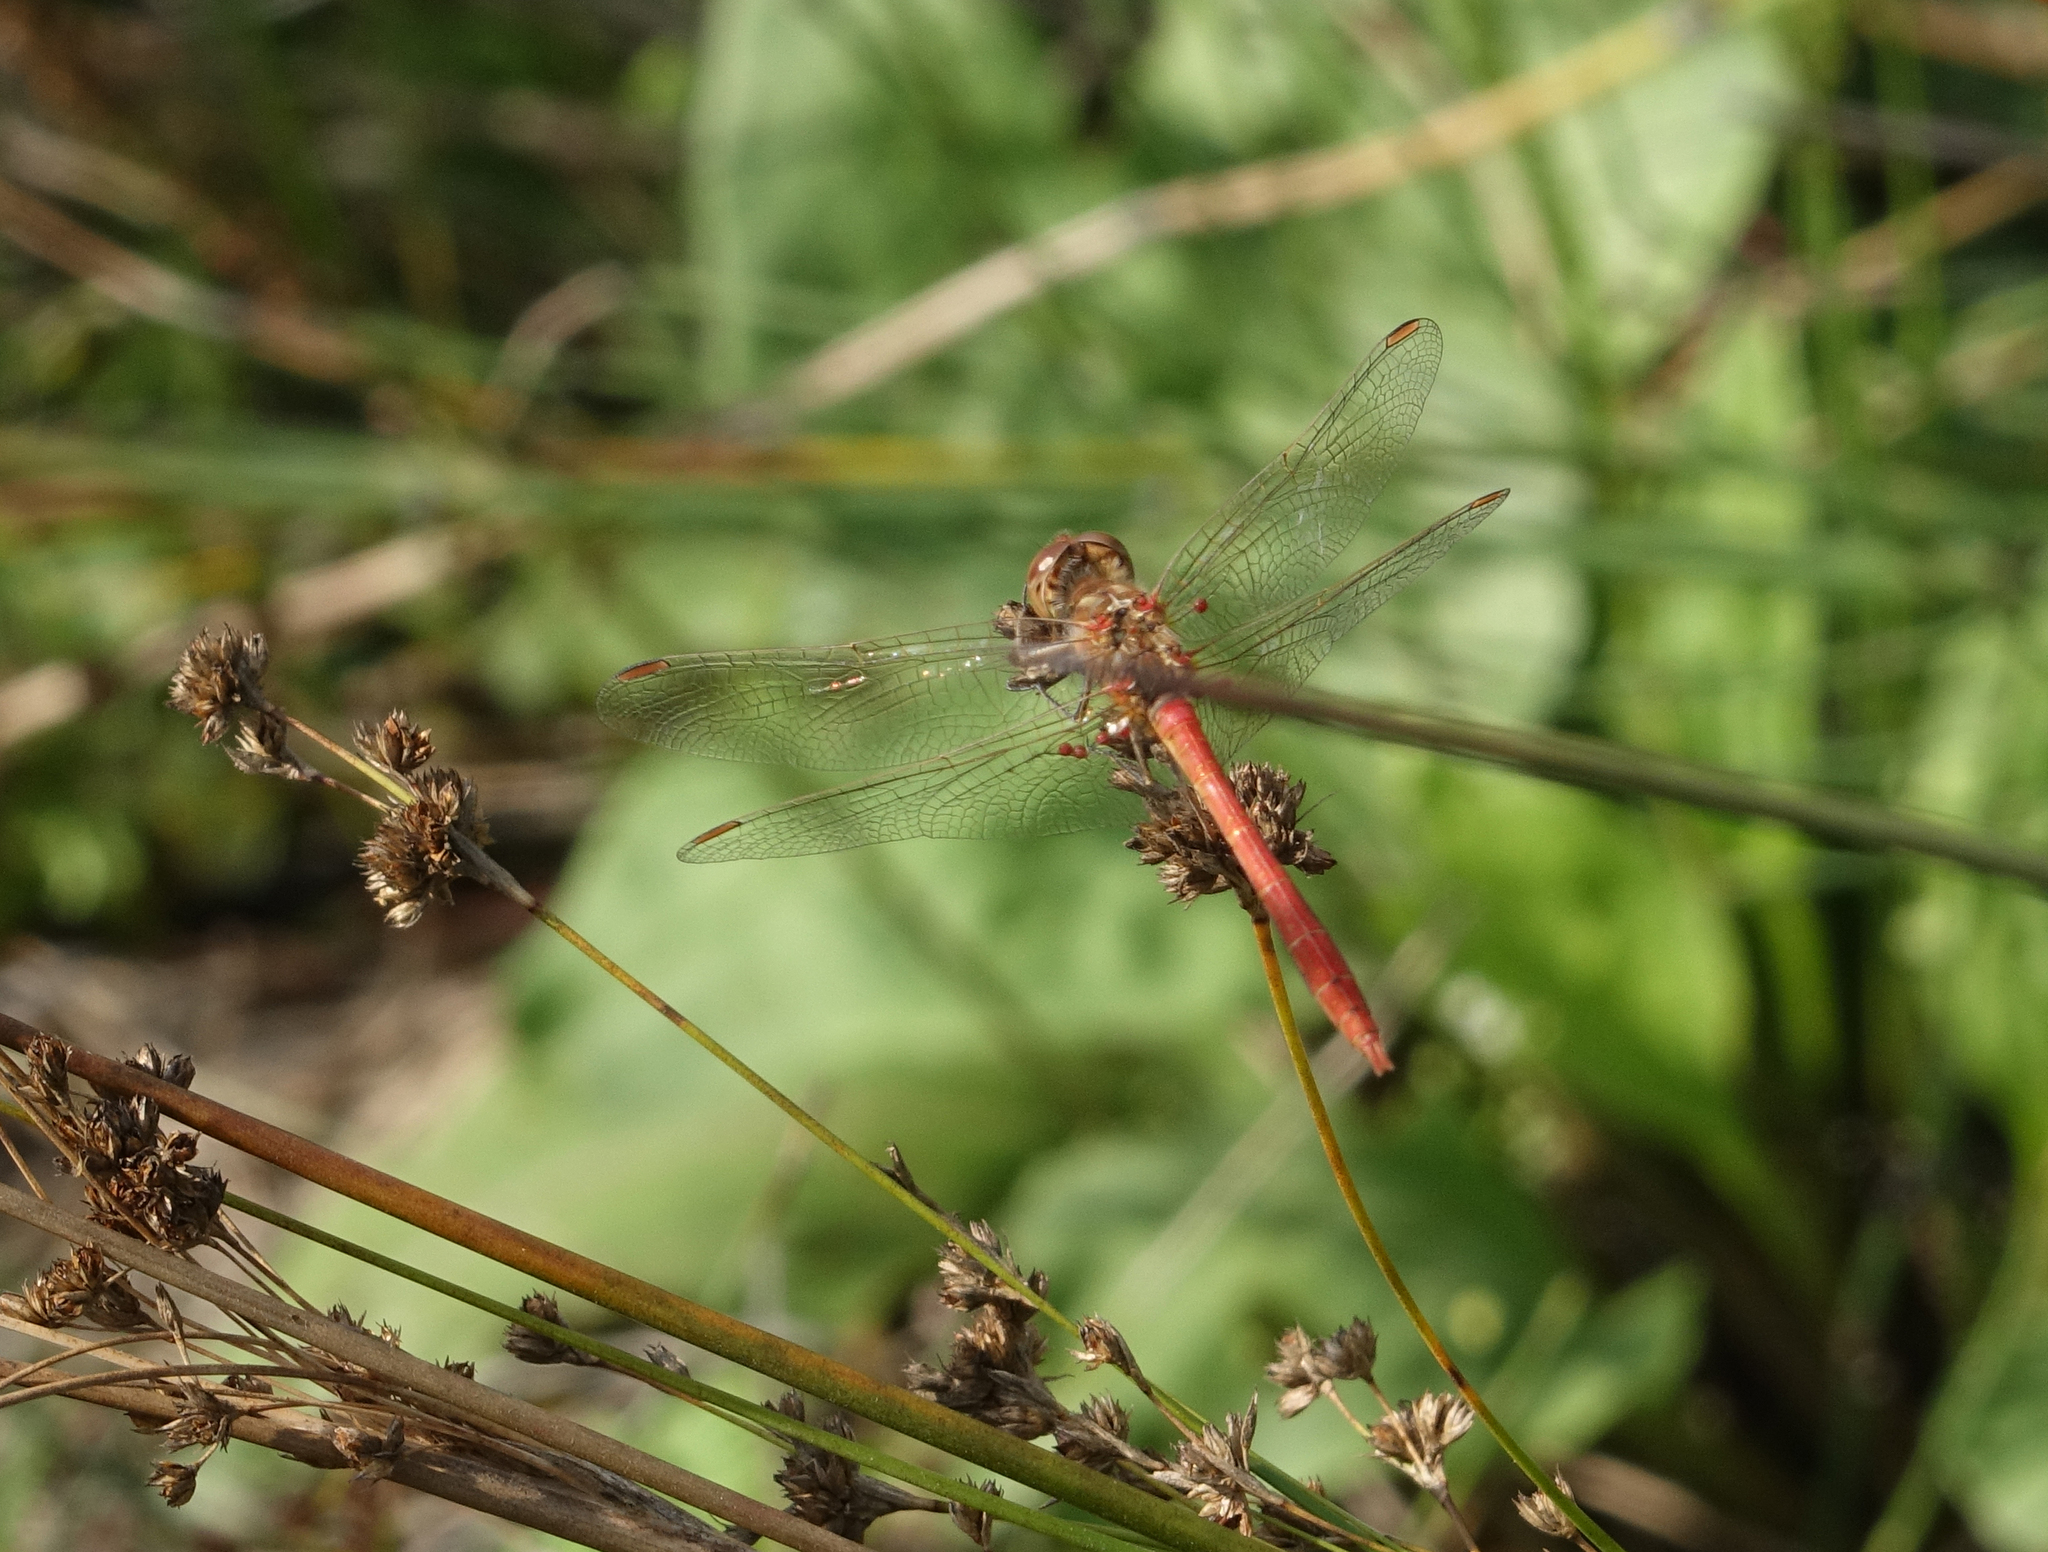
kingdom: Animalia
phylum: Arthropoda
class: Insecta
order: Odonata
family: Libellulidae
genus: Sympetrum
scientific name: Sympetrum meridionale
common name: Southern darter
